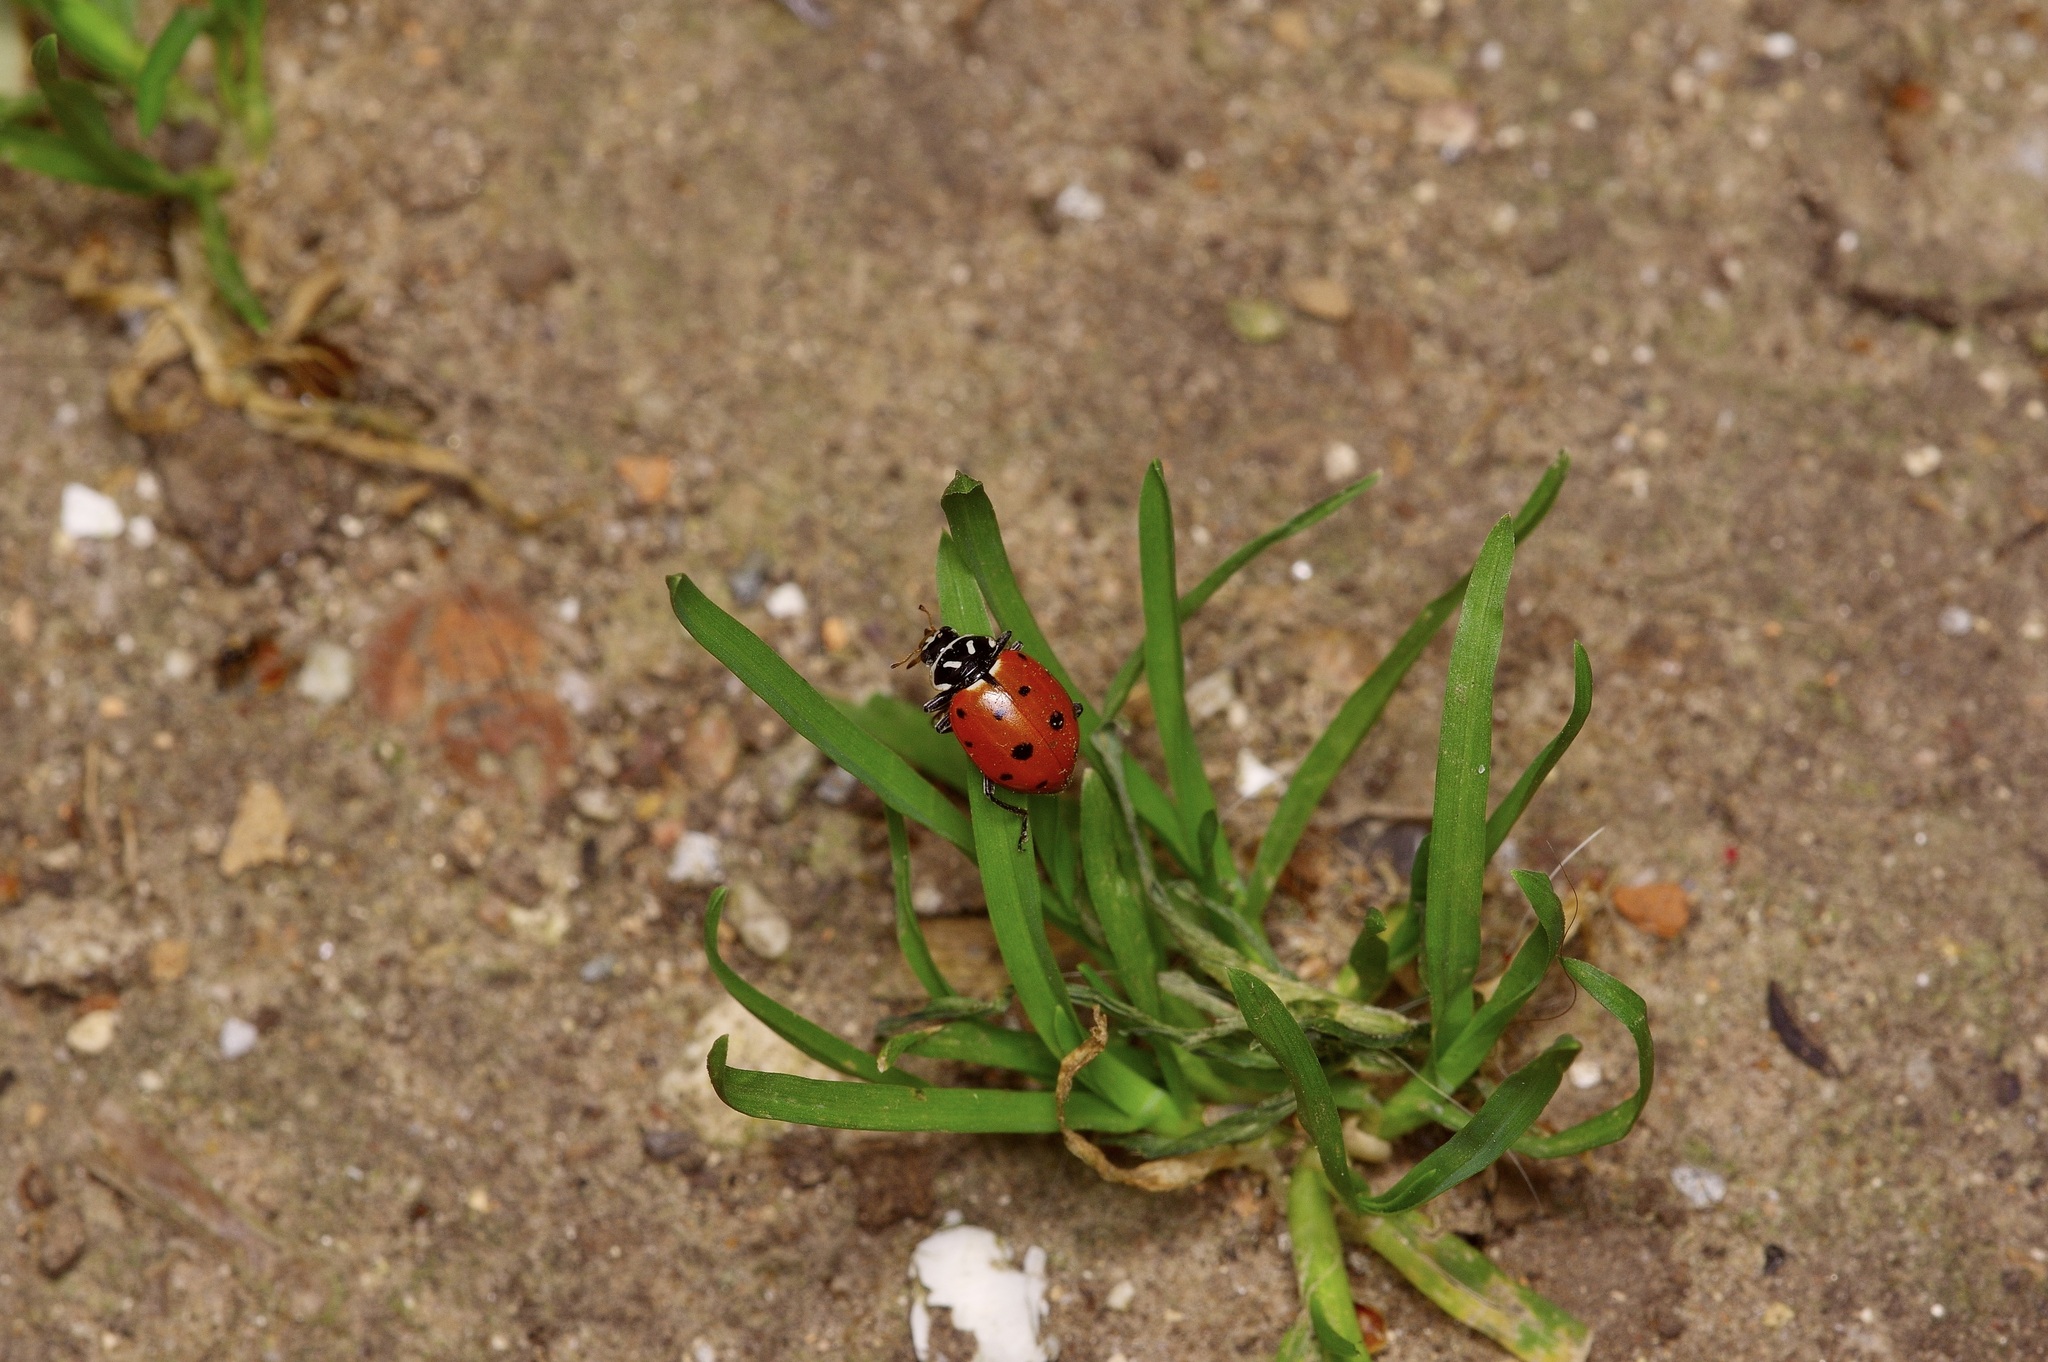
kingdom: Animalia
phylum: Arthropoda
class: Insecta
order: Coleoptera
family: Coccinellidae
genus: Hippodamia
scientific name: Hippodamia convergens
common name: Convergent lady beetle
